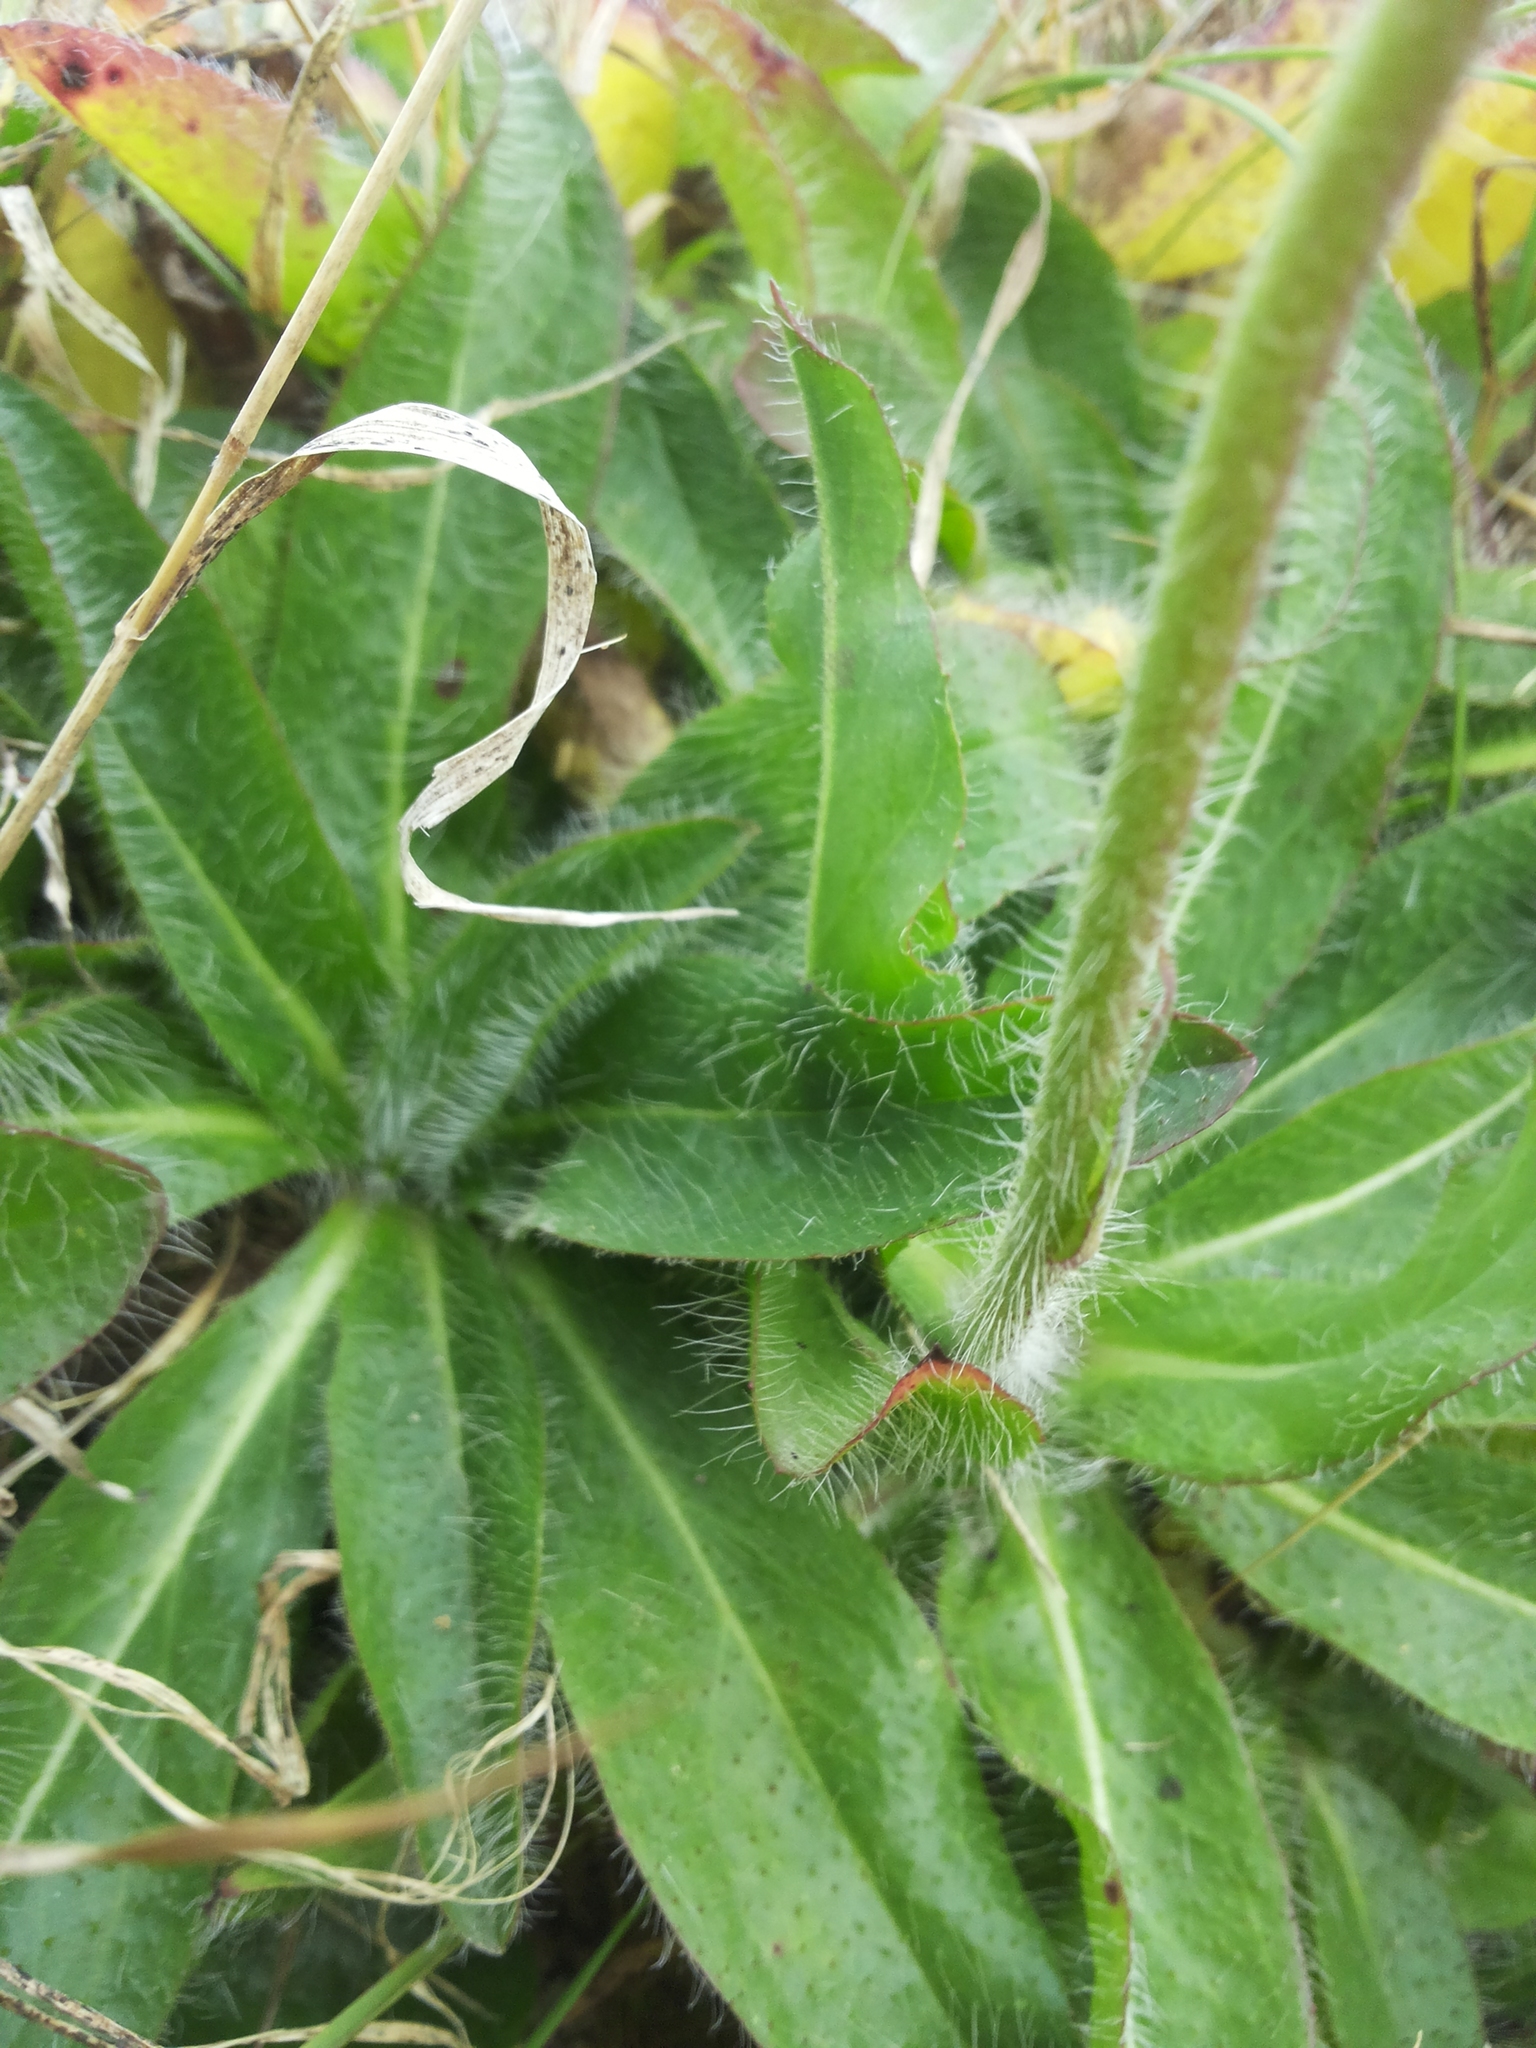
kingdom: Plantae
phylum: Tracheophyta
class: Magnoliopsida
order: Asterales
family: Asteraceae
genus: Pilosella
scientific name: Pilosella aurantiaca
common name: Fox-and-cubs
